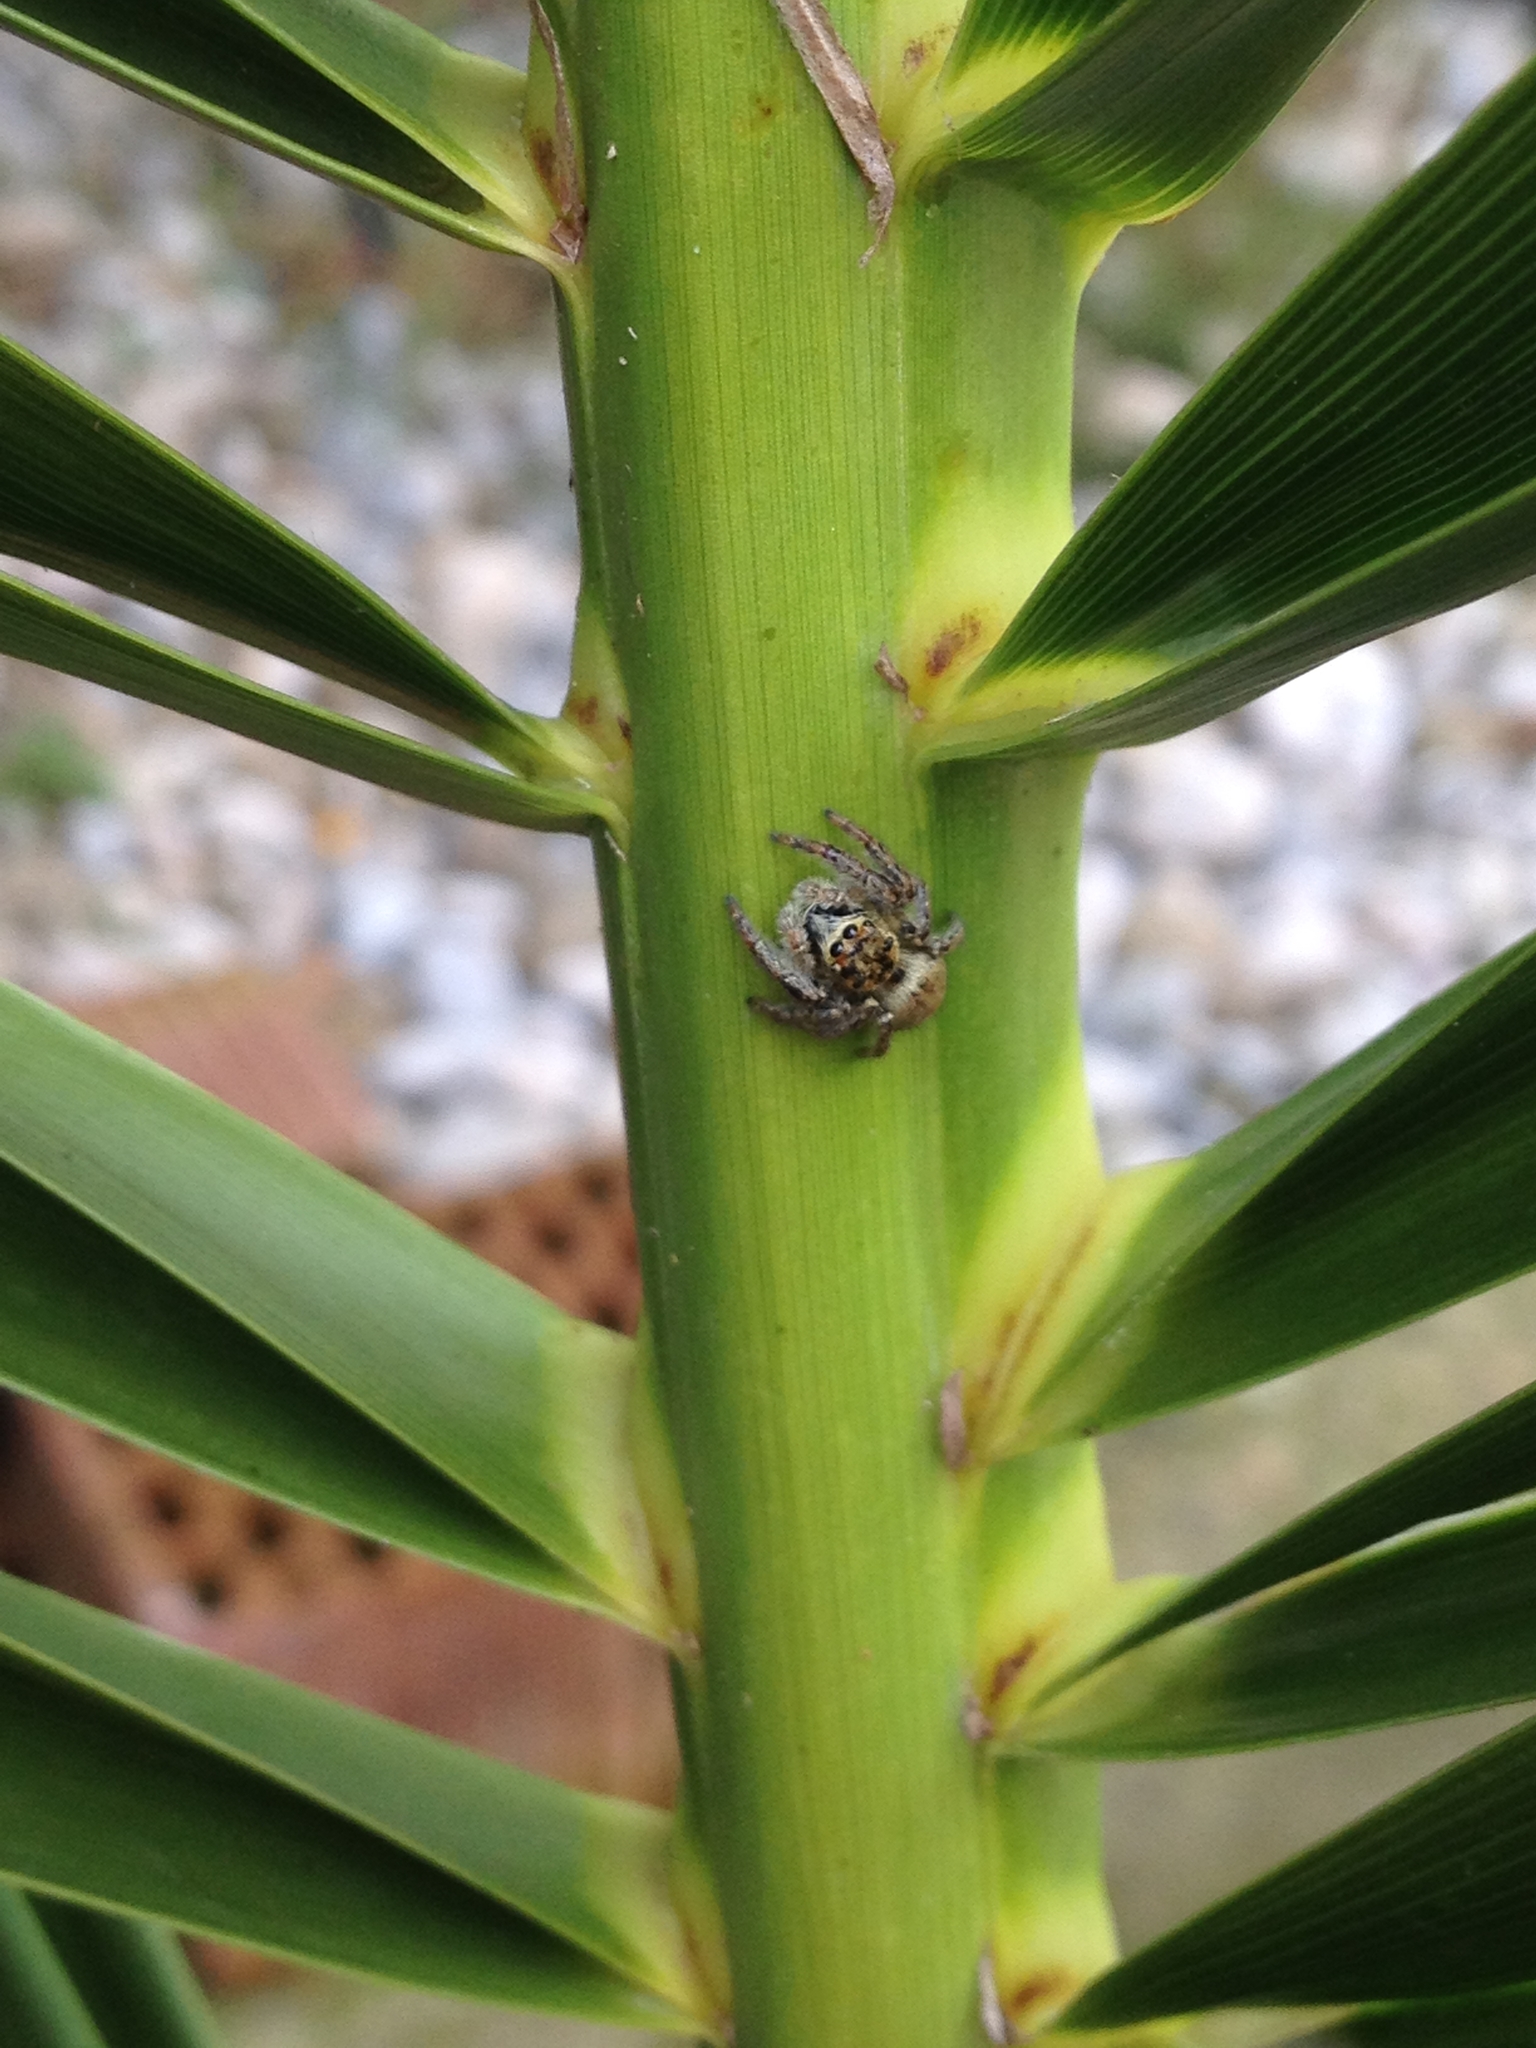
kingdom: Animalia
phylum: Arthropoda
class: Arachnida
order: Araneae
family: Salticidae
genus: Carrhotus
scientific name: Carrhotus xanthogramma
